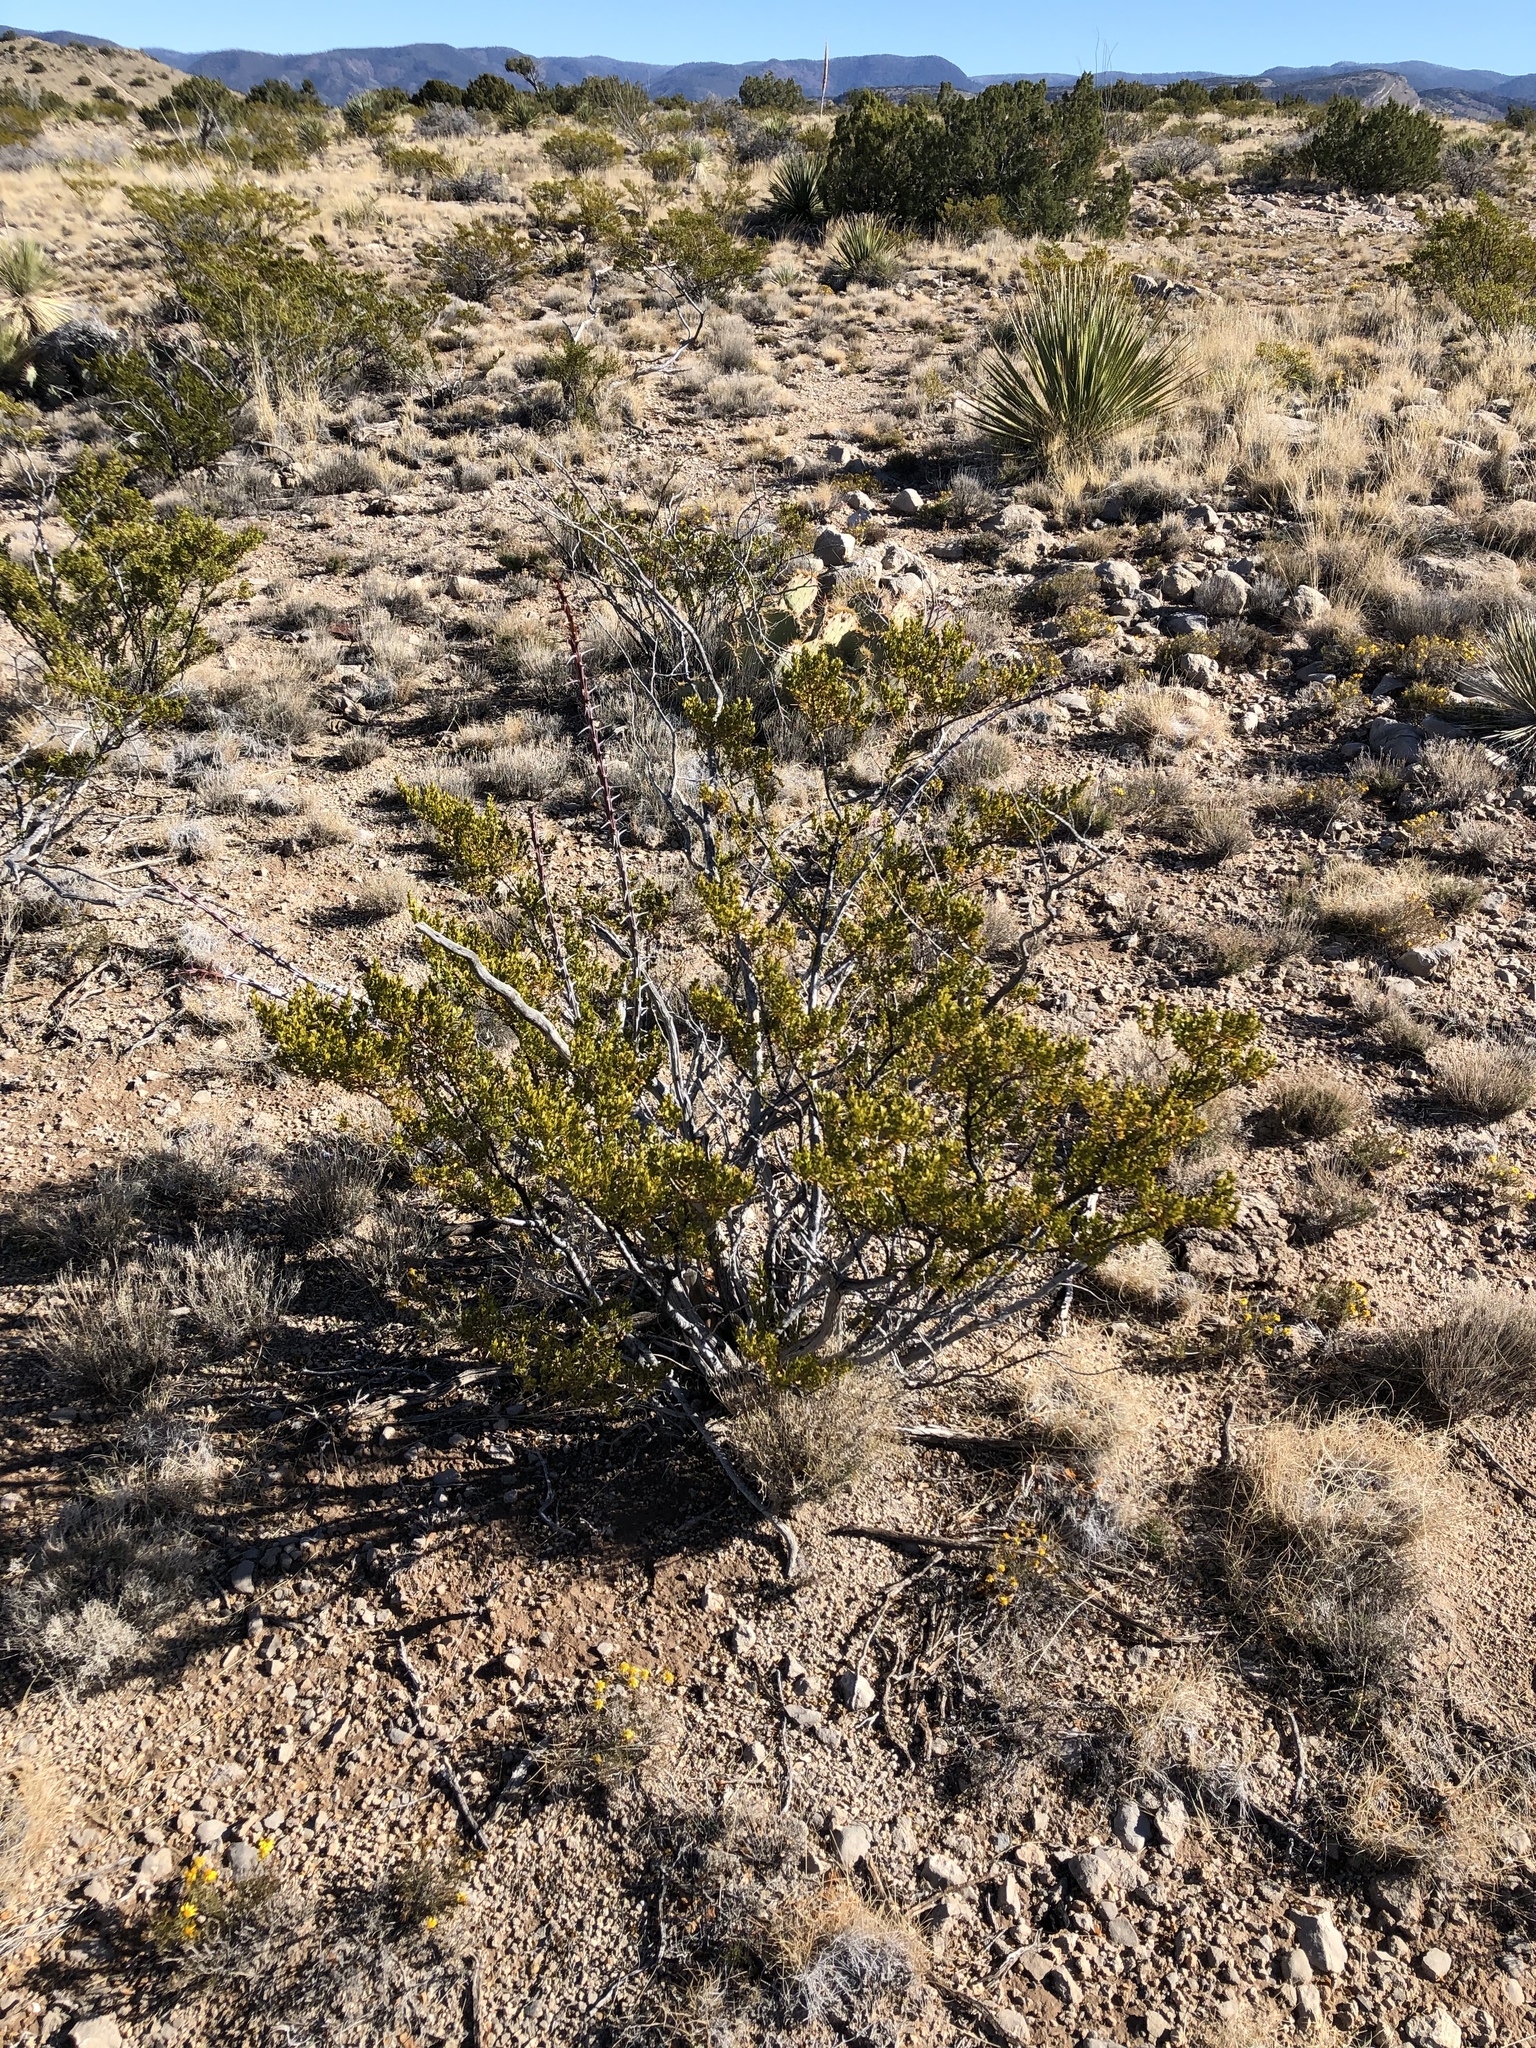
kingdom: Plantae
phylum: Tracheophyta
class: Magnoliopsida
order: Zygophyllales
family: Zygophyllaceae
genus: Larrea
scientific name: Larrea tridentata
